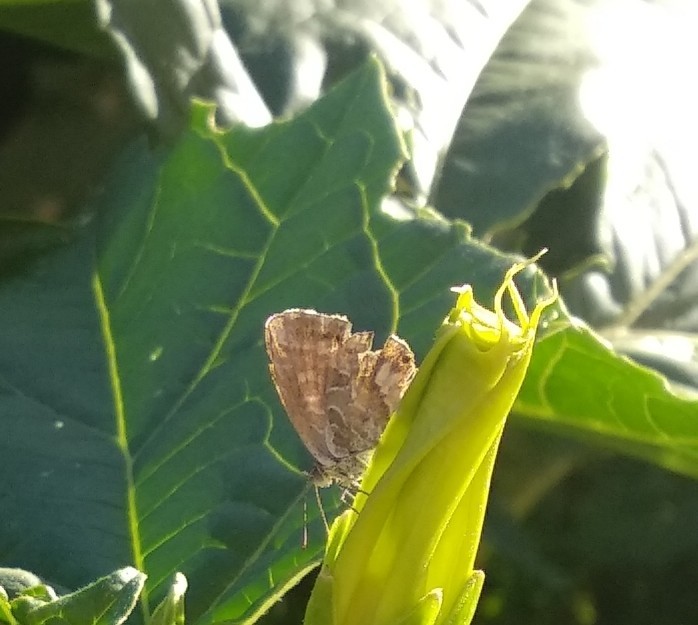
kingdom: Animalia
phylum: Arthropoda
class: Insecta
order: Lepidoptera
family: Lycaenidae
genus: Cacyreus
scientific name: Cacyreus marshalli
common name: Geranium bronze
